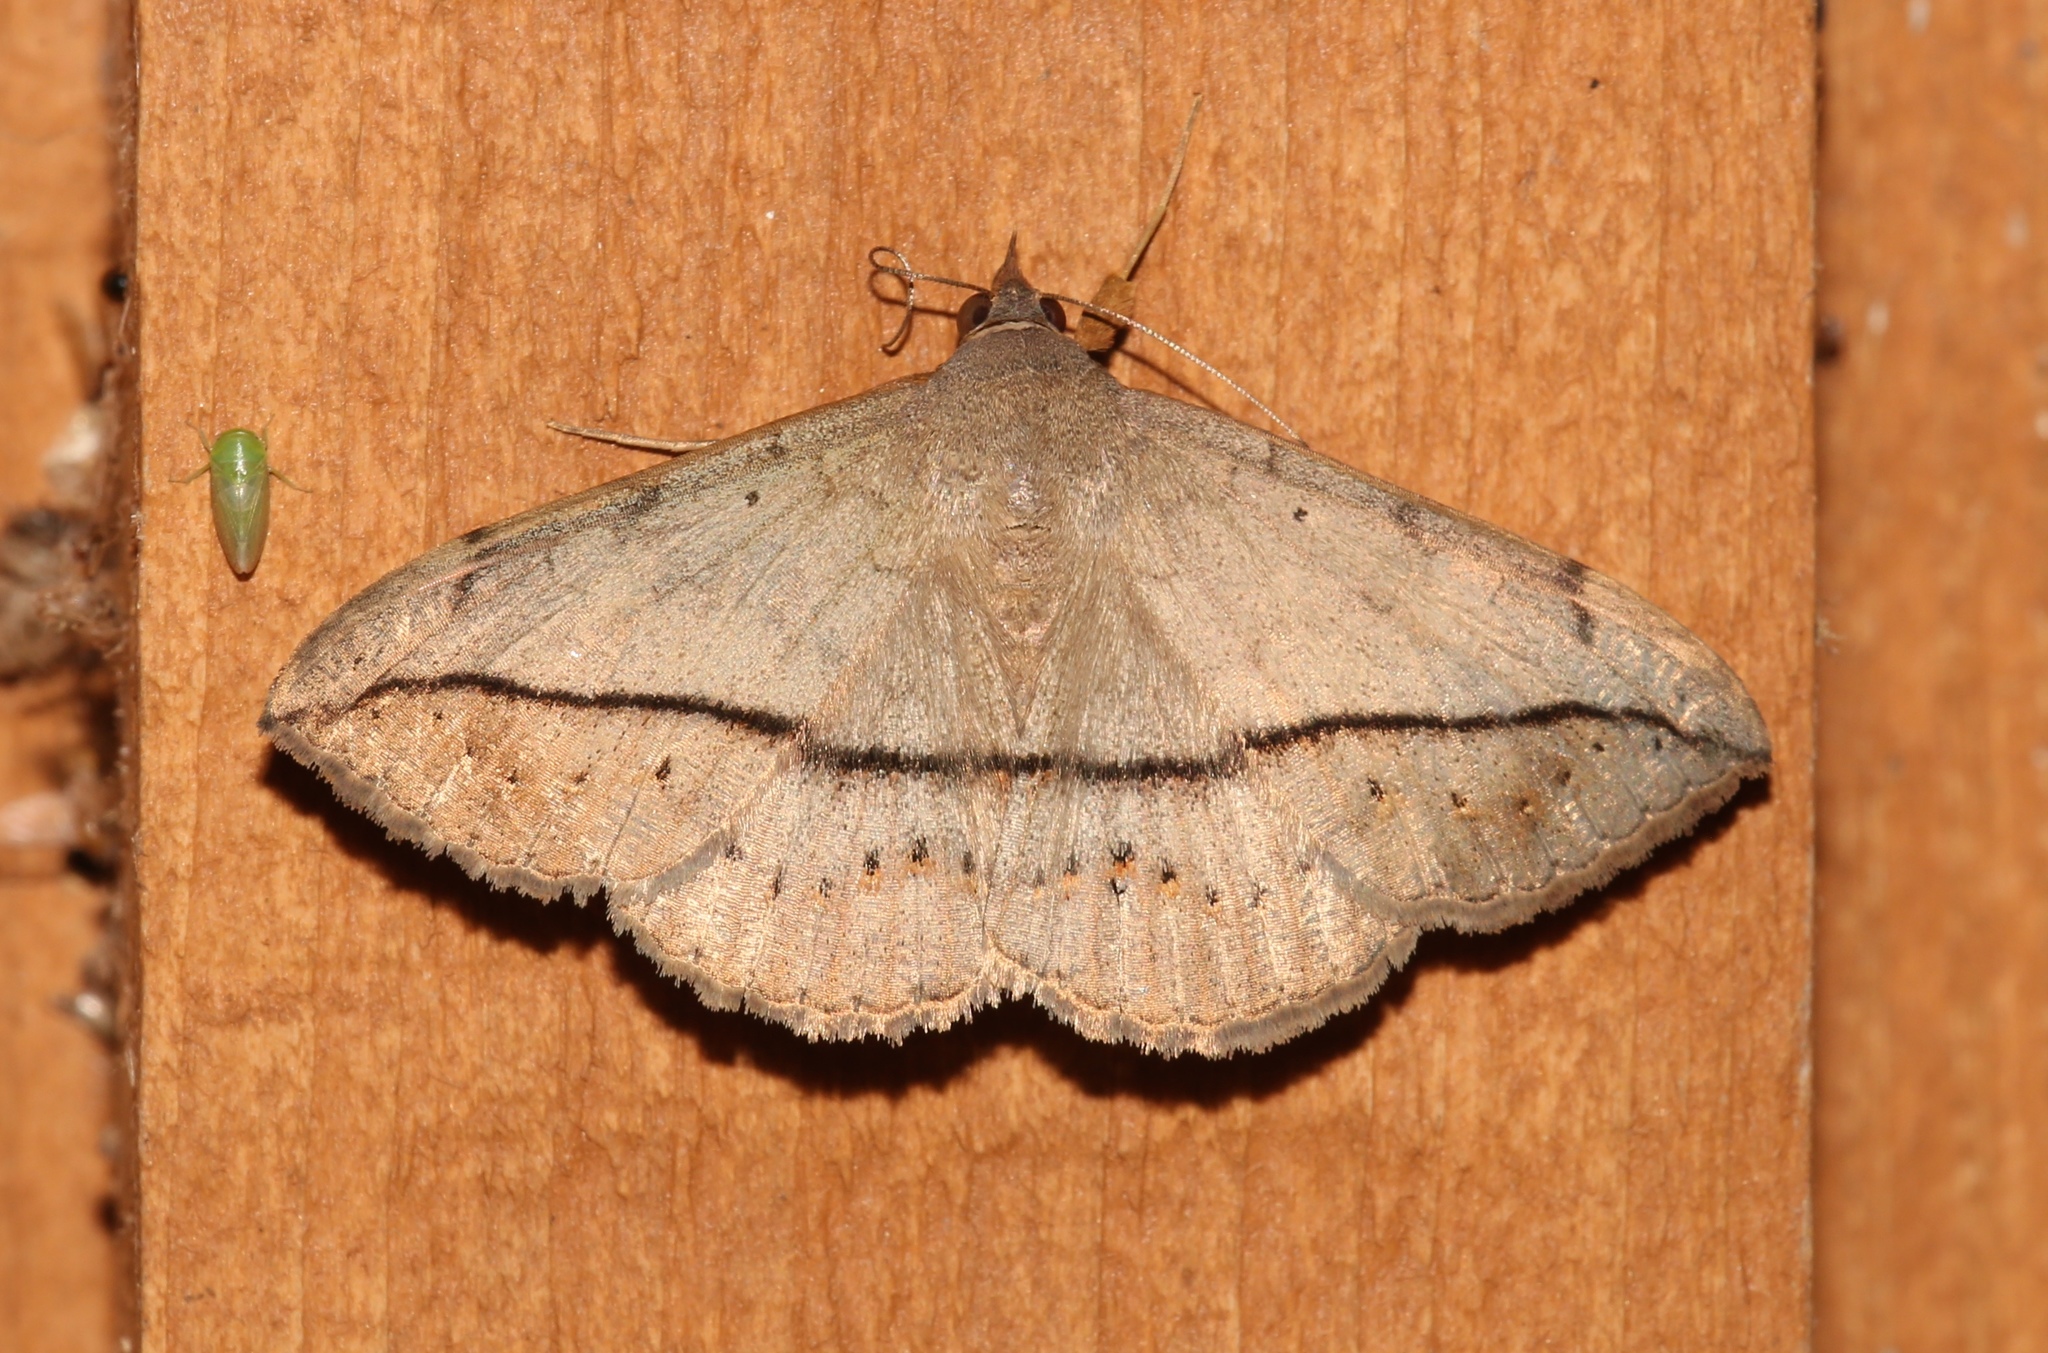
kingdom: Animalia
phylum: Arthropoda
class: Insecta
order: Lepidoptera
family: Erebidae
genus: Anticarsia
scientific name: Anticarsia gemmatalis
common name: Cutworm moth
